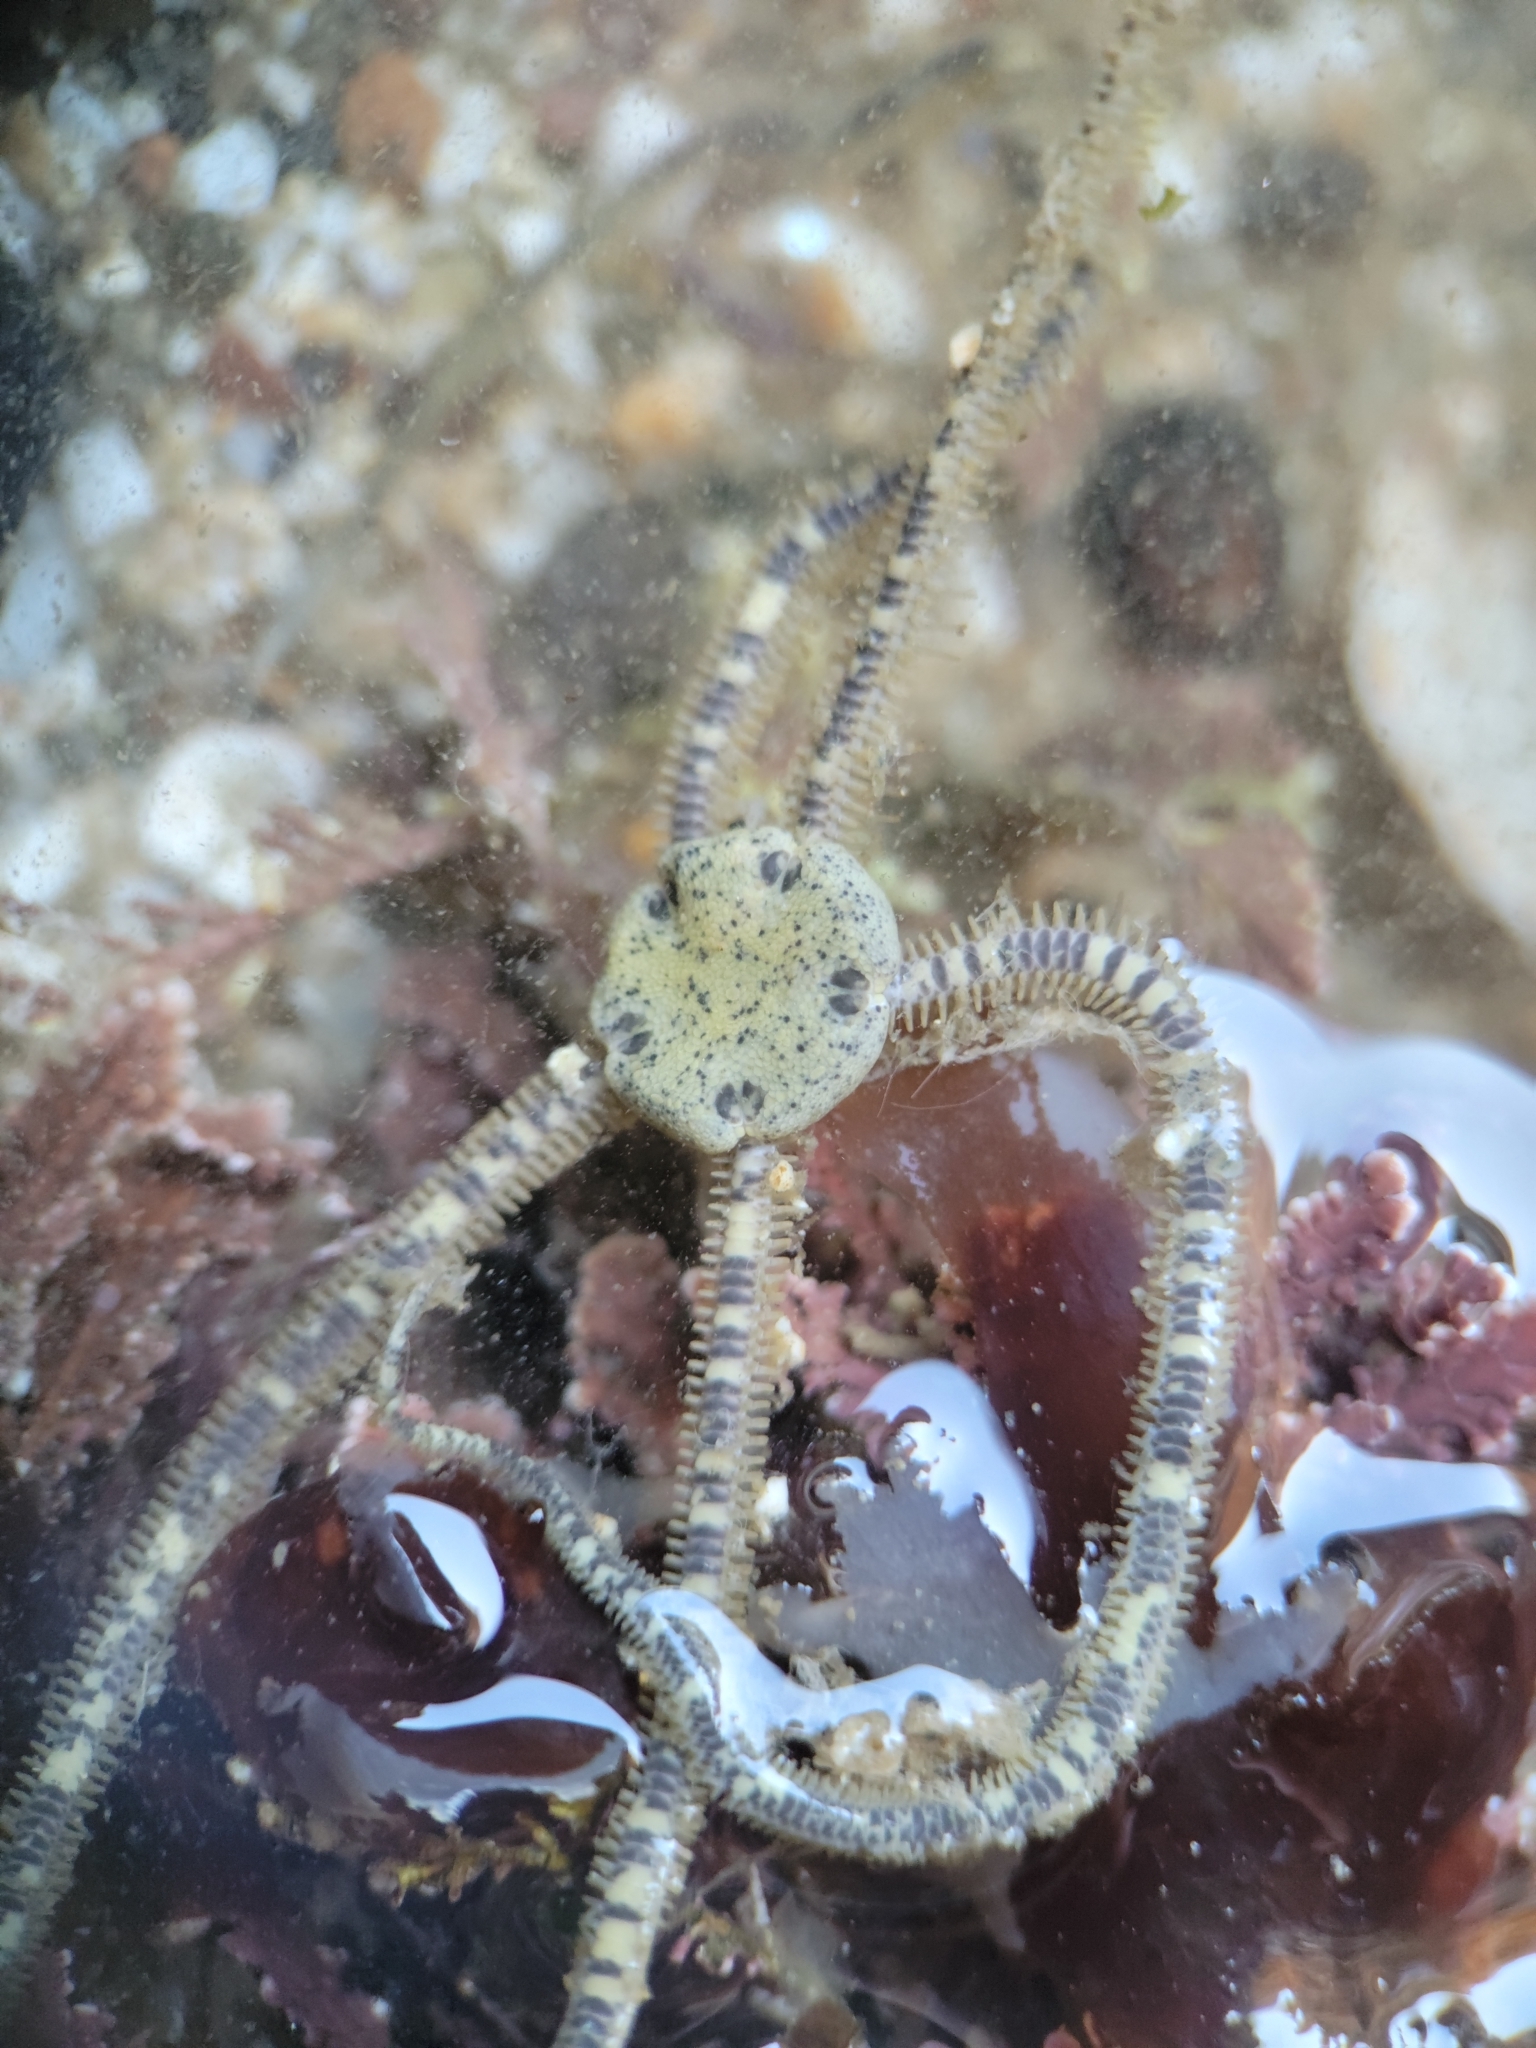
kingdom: Animalia
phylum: Echinodermata
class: Ophiuroidea
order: Amphilepidida
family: Amphiuridae
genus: Amphiodia
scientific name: Amphiodia occidentalis
